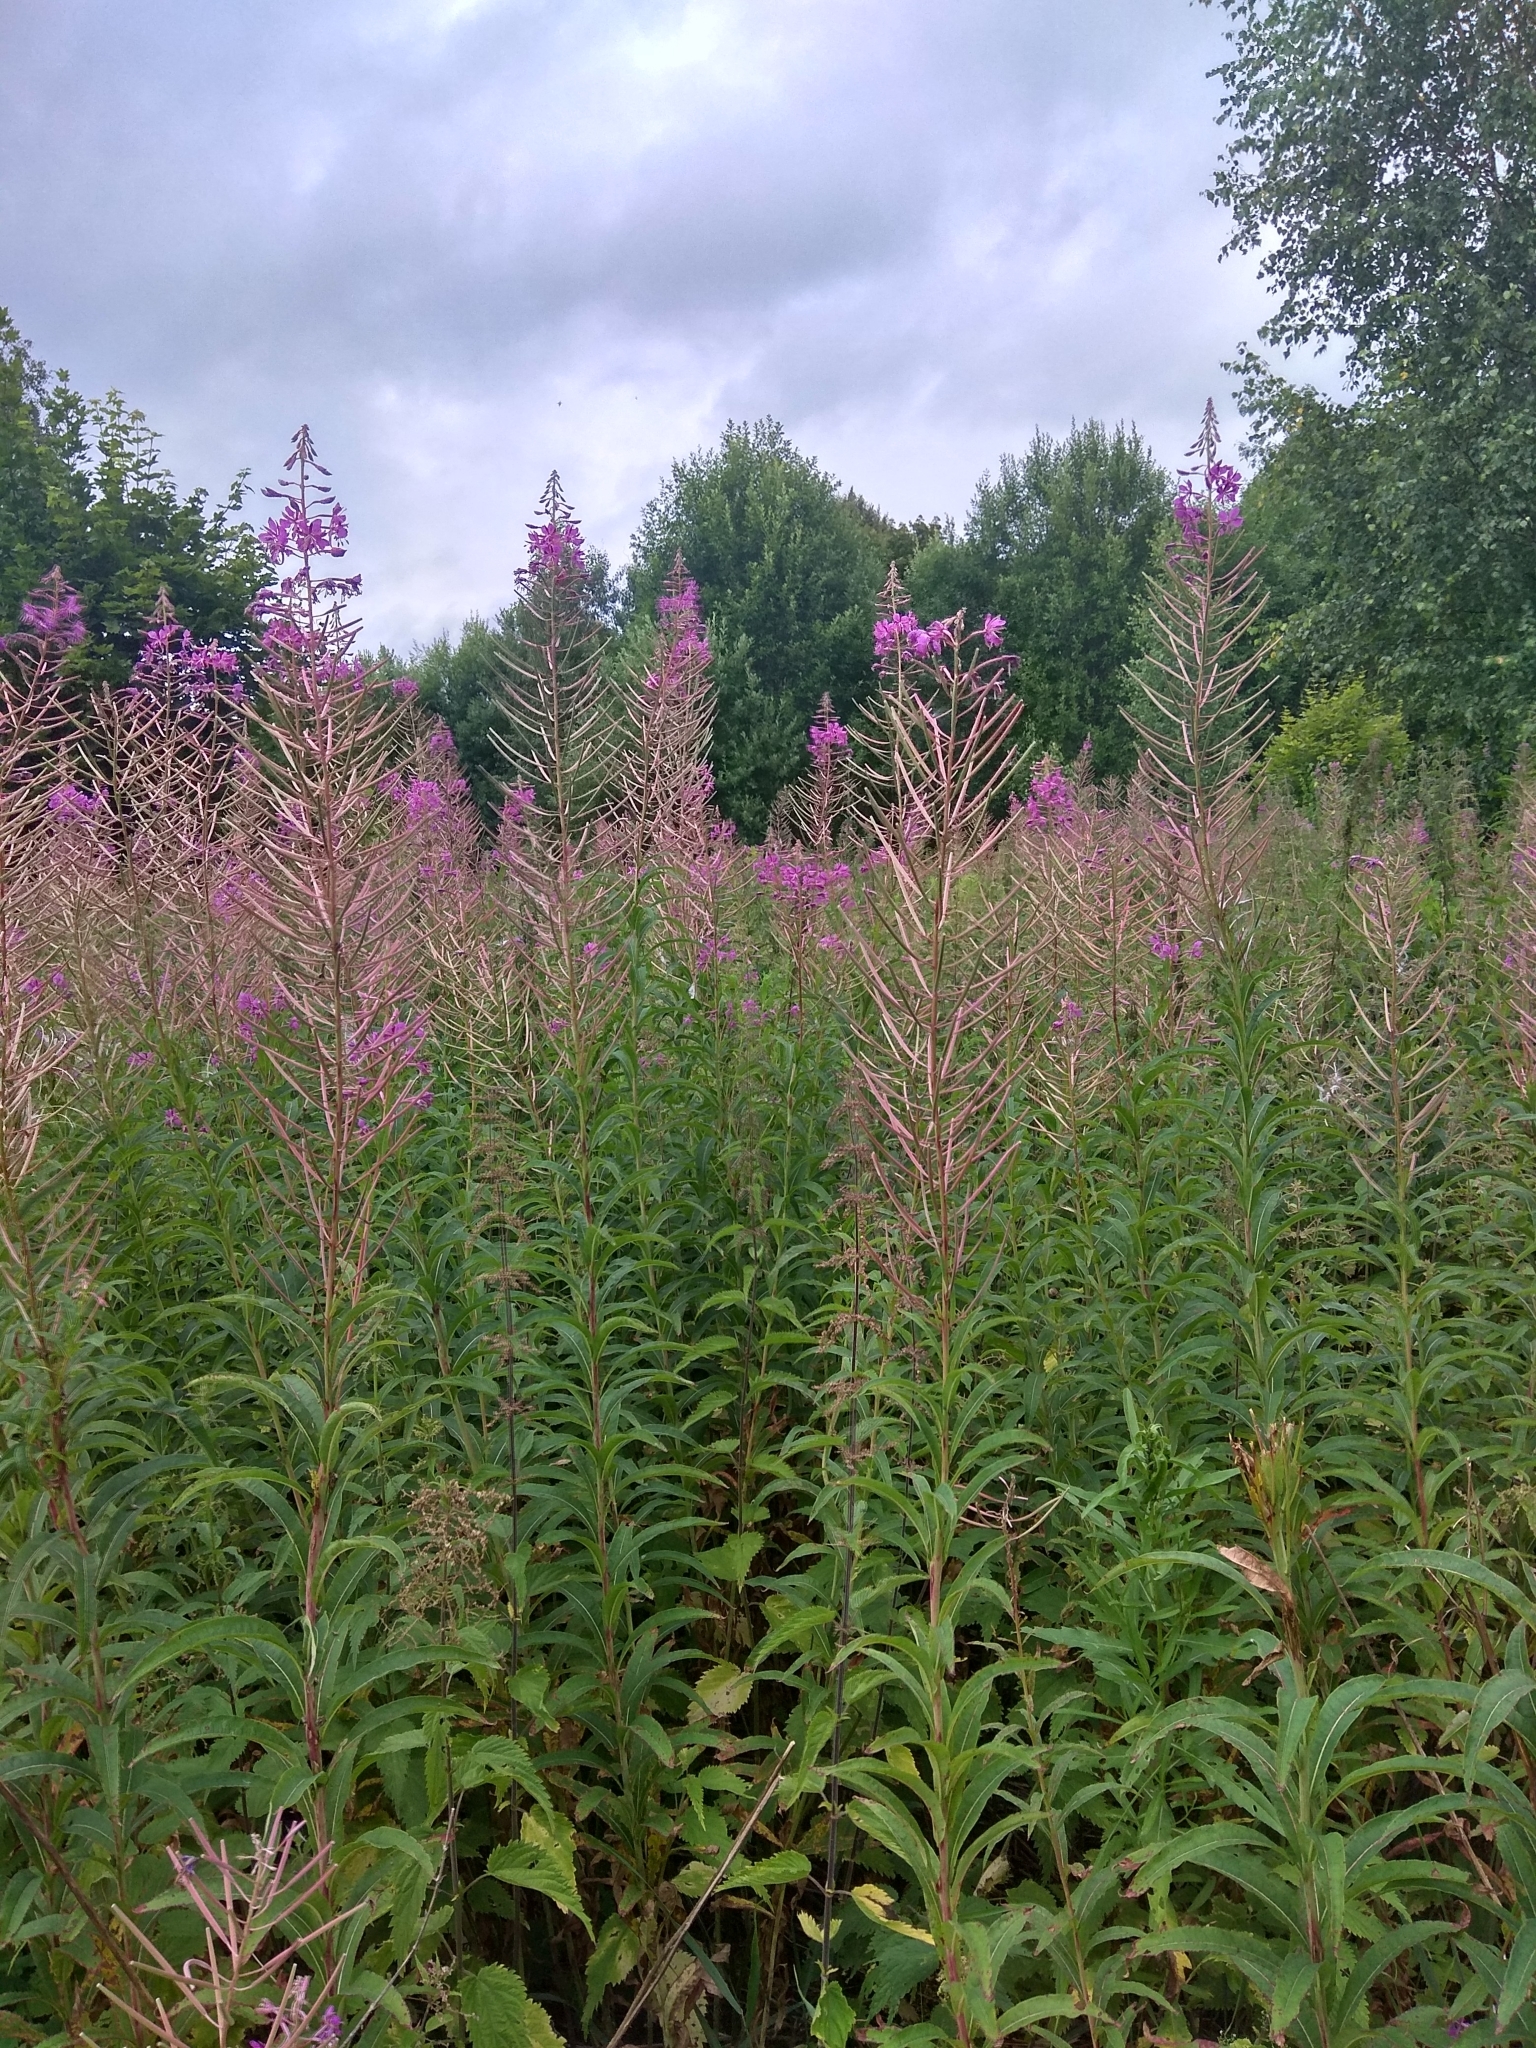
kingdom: Plantae
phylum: Tracheophyta
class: Magnoliopsida
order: Myrtales
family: Onagraceae
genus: Chamaenerion
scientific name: Chamaenerion angustifolium
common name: Fireweed
